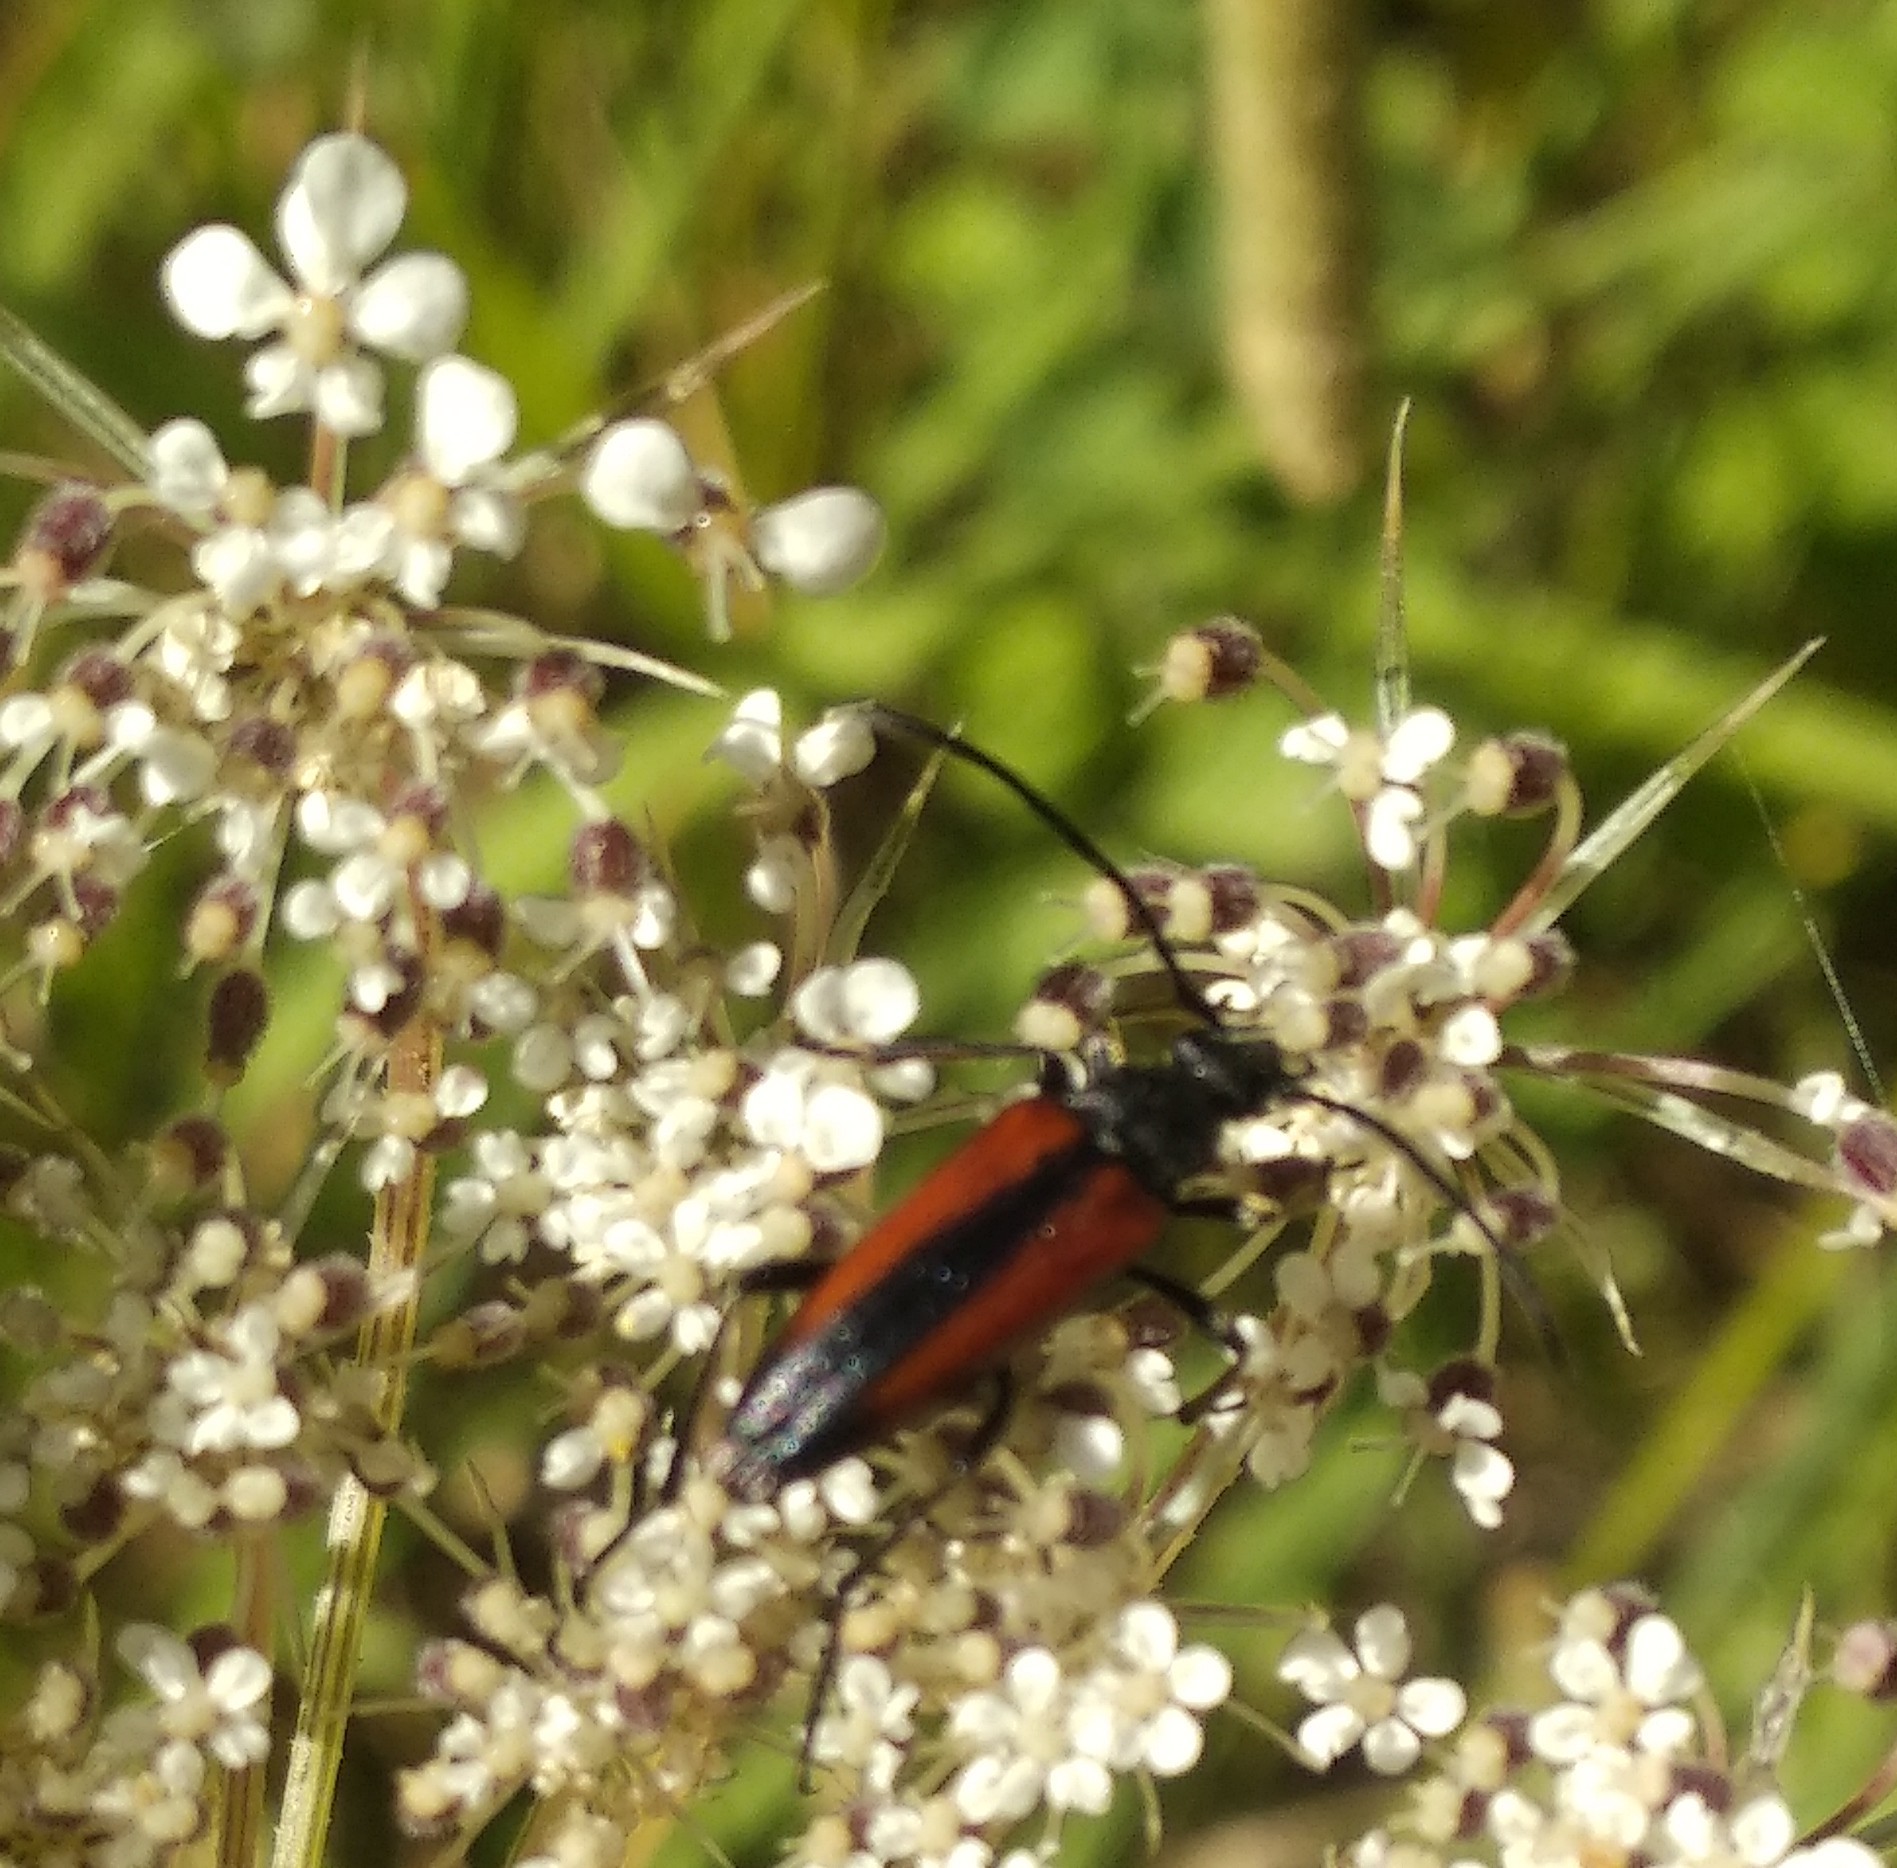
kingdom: Animalia
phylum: Arthropoda
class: Insecta
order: Coleoptera
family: Cerambycidae
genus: Stenurella
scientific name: Stenurella melanura
